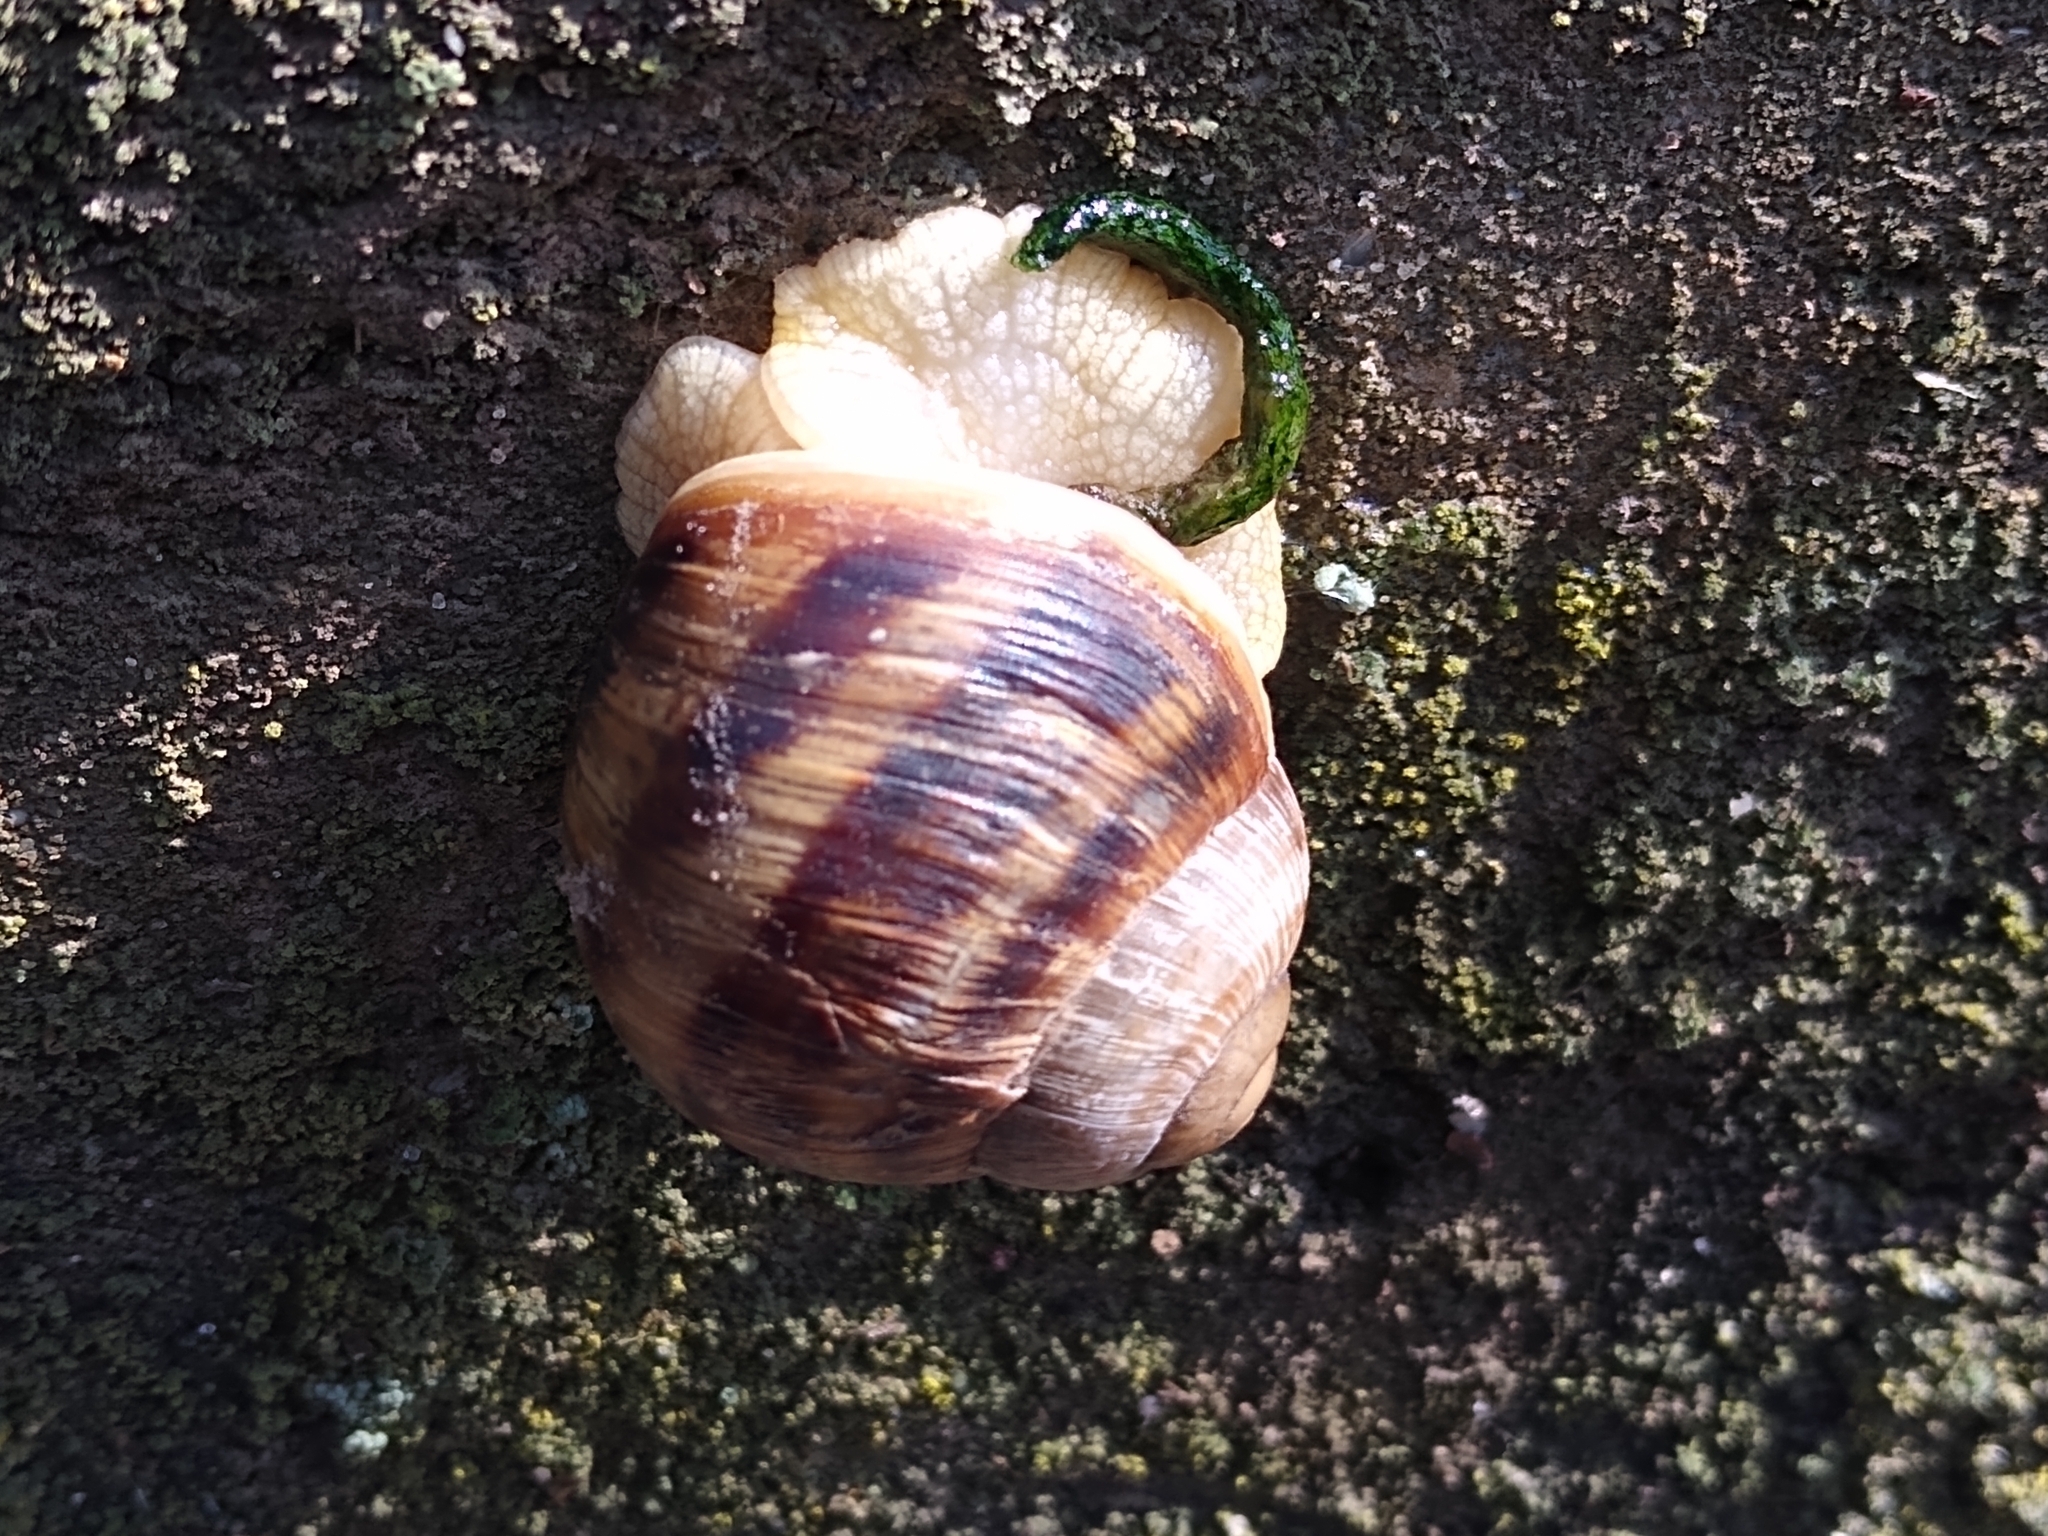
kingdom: Animalia
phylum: Mollusca
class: Gastropoda
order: Stylommatophora
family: Helicidae
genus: Helix
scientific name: Helix albescens
